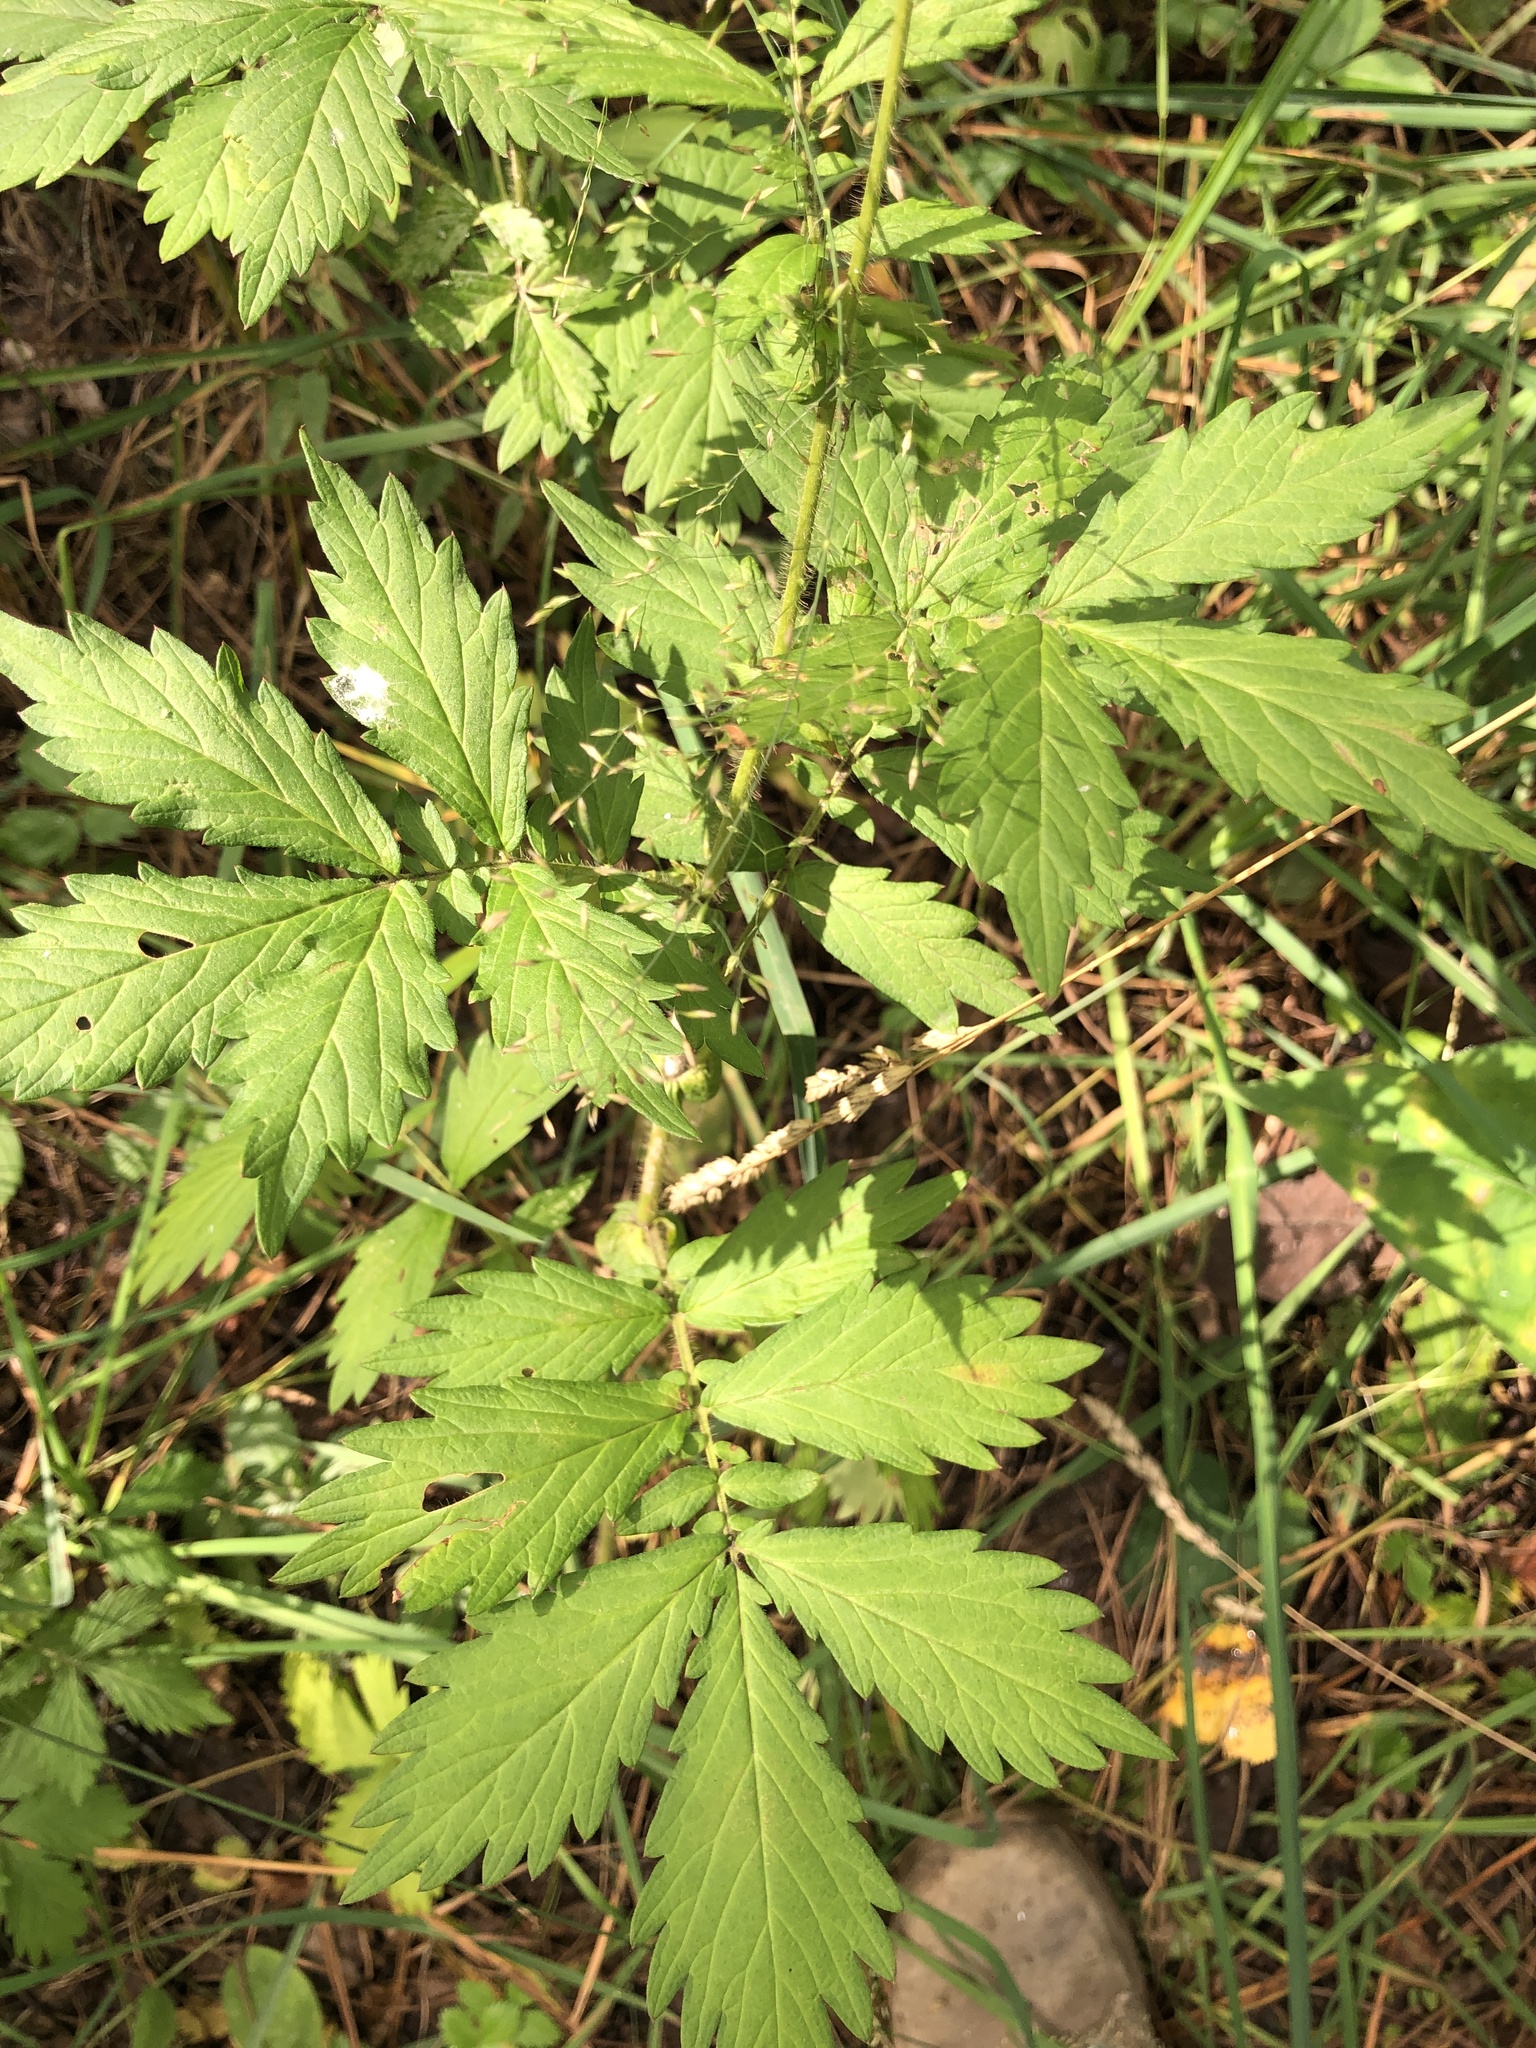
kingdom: Plantae
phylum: Tracheophyta
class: Magnoliopsida
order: Rosales
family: Rosaceae
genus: Agrimonia
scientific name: Agrimonia pilosa
